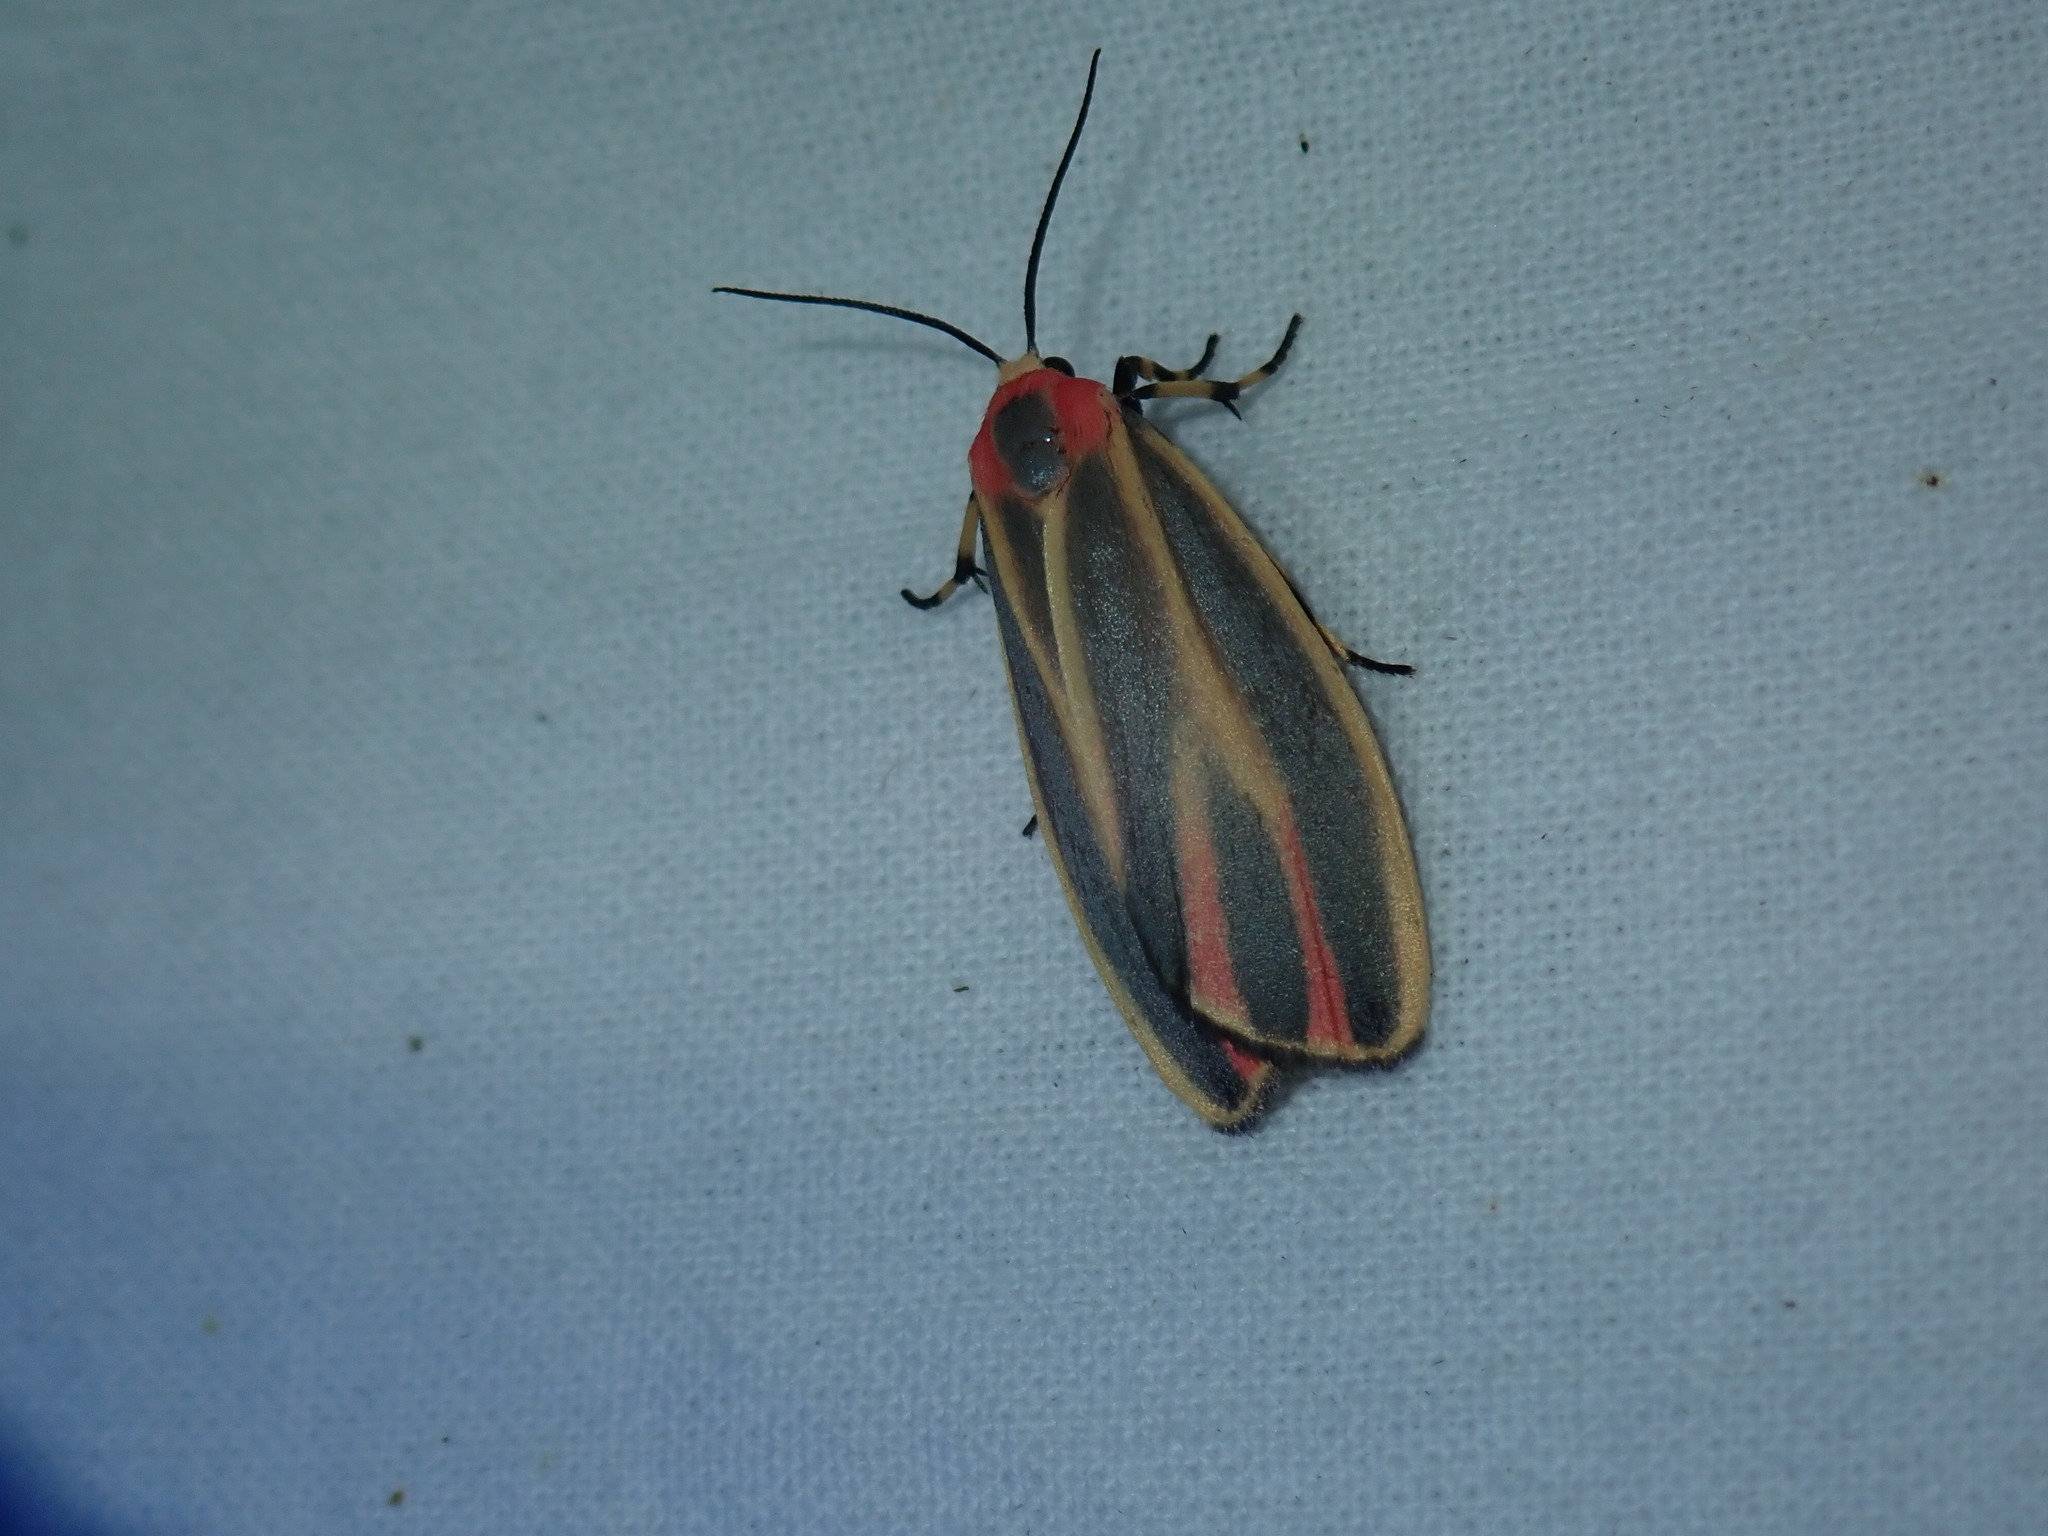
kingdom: Animalia
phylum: Arthropoda
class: Insecta
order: Lepidoptera
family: Erebidae
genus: Hypoprepia
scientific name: Hypoprepia fucosa
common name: Painted lichen moth
